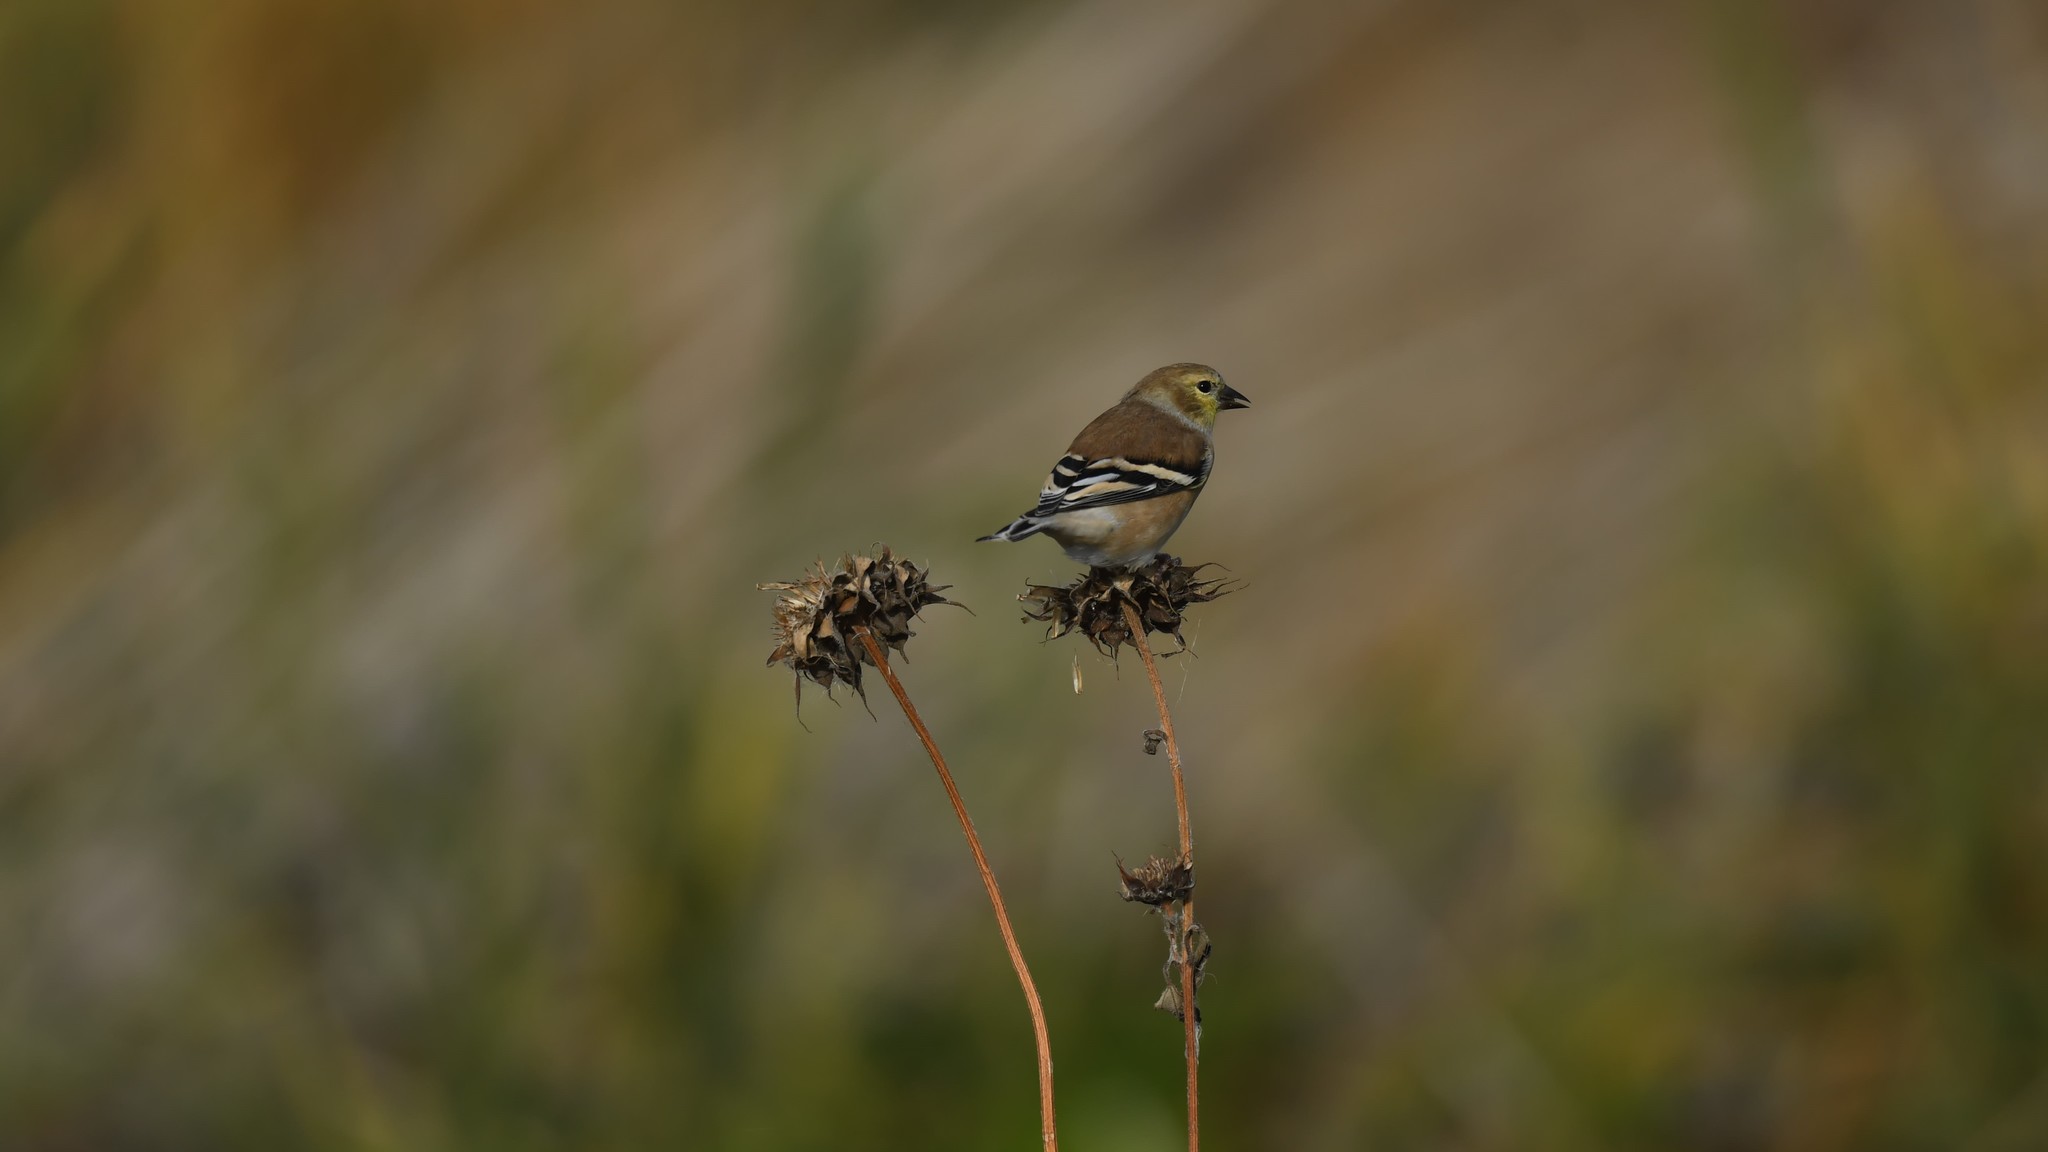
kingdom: Animalia
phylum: Chordata
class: Aves
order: Passeriformes
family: Fringillidae
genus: Spinus
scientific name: Spinus tristis
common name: American goldfinch
